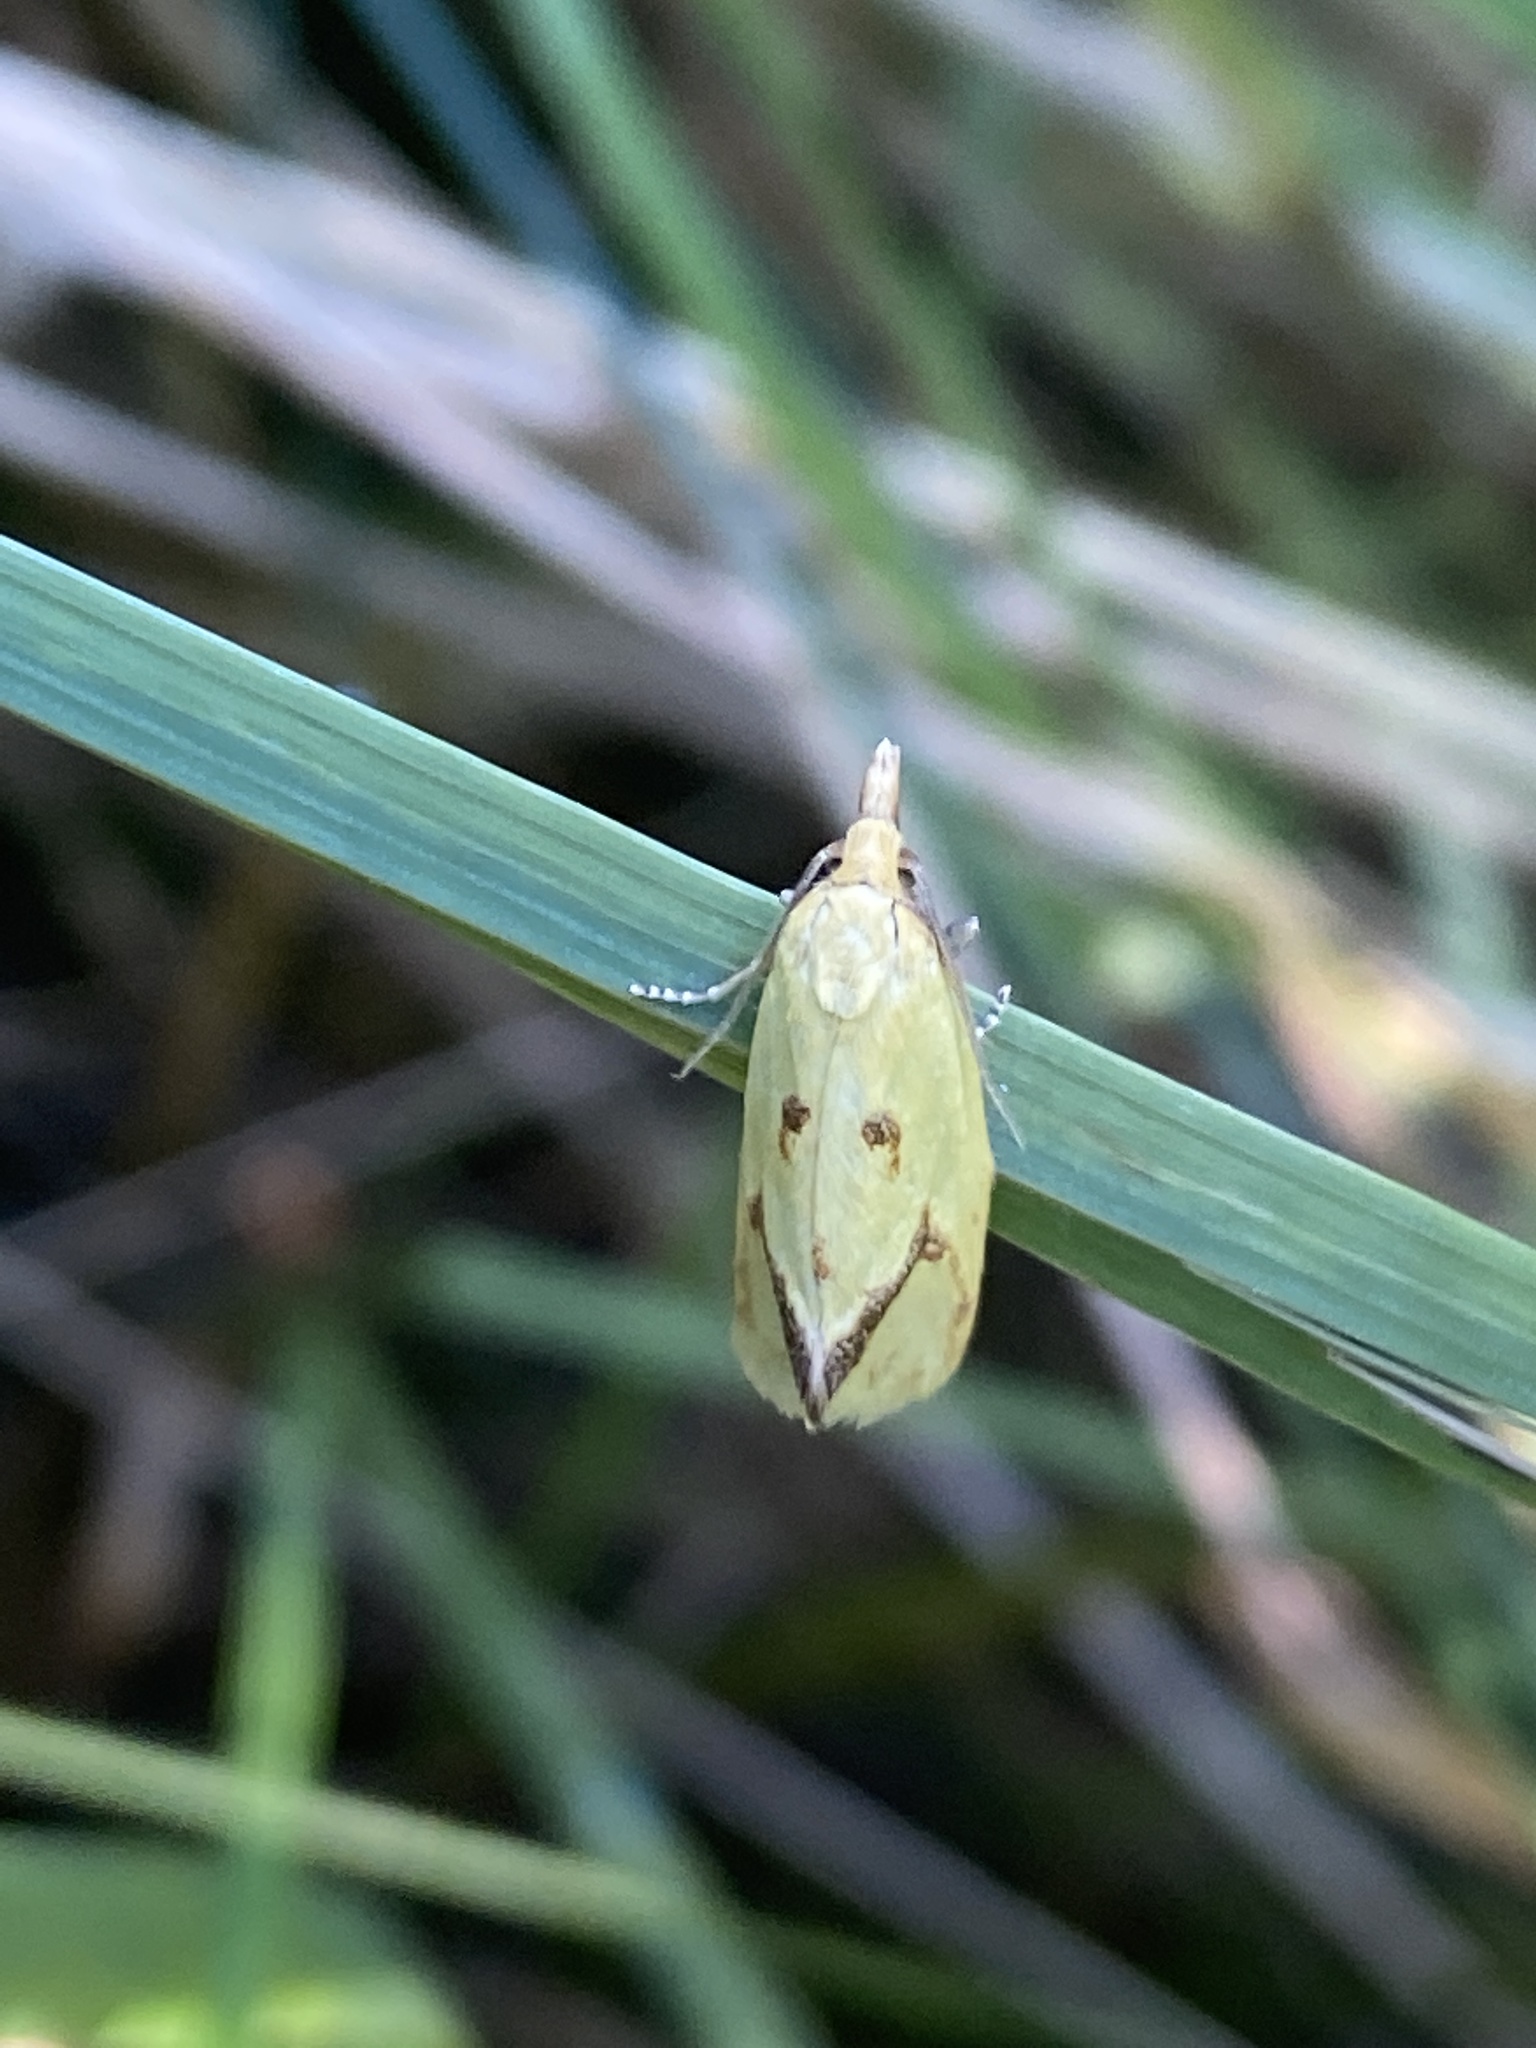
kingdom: Animalia
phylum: Arthropoda
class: Insecta
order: Lepidoptera
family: Tortricidae
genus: Agapeta
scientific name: Agapeta hamana
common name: Common yellow conch
